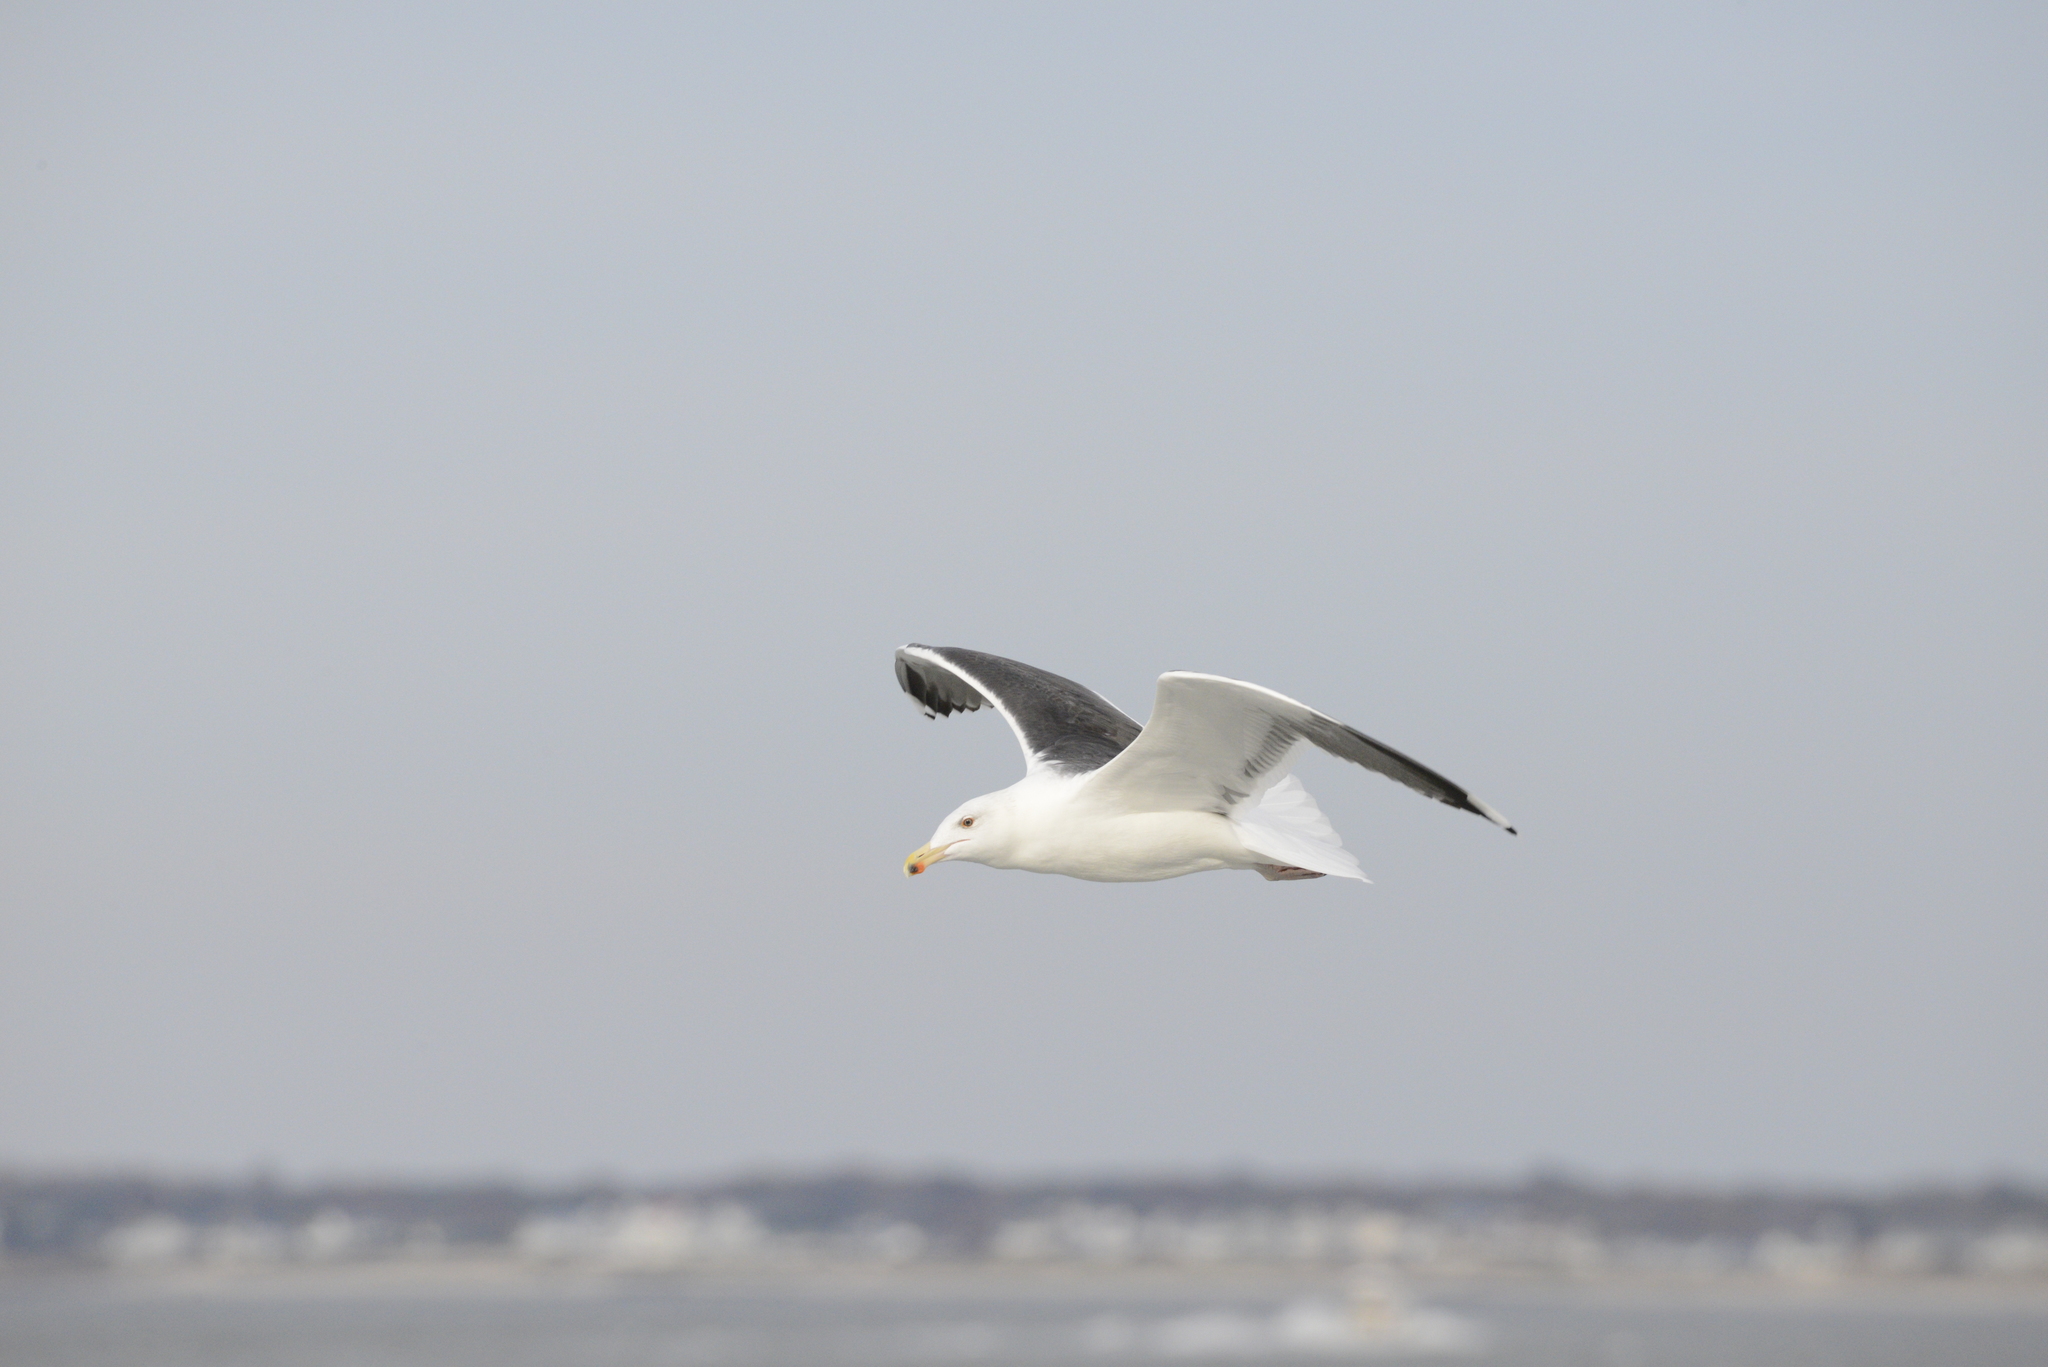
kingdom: Animalia
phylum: Chordata
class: Aves
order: Charadriiformes
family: Laridae
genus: Larus
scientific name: Larus marinus
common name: Great black-backed gull
